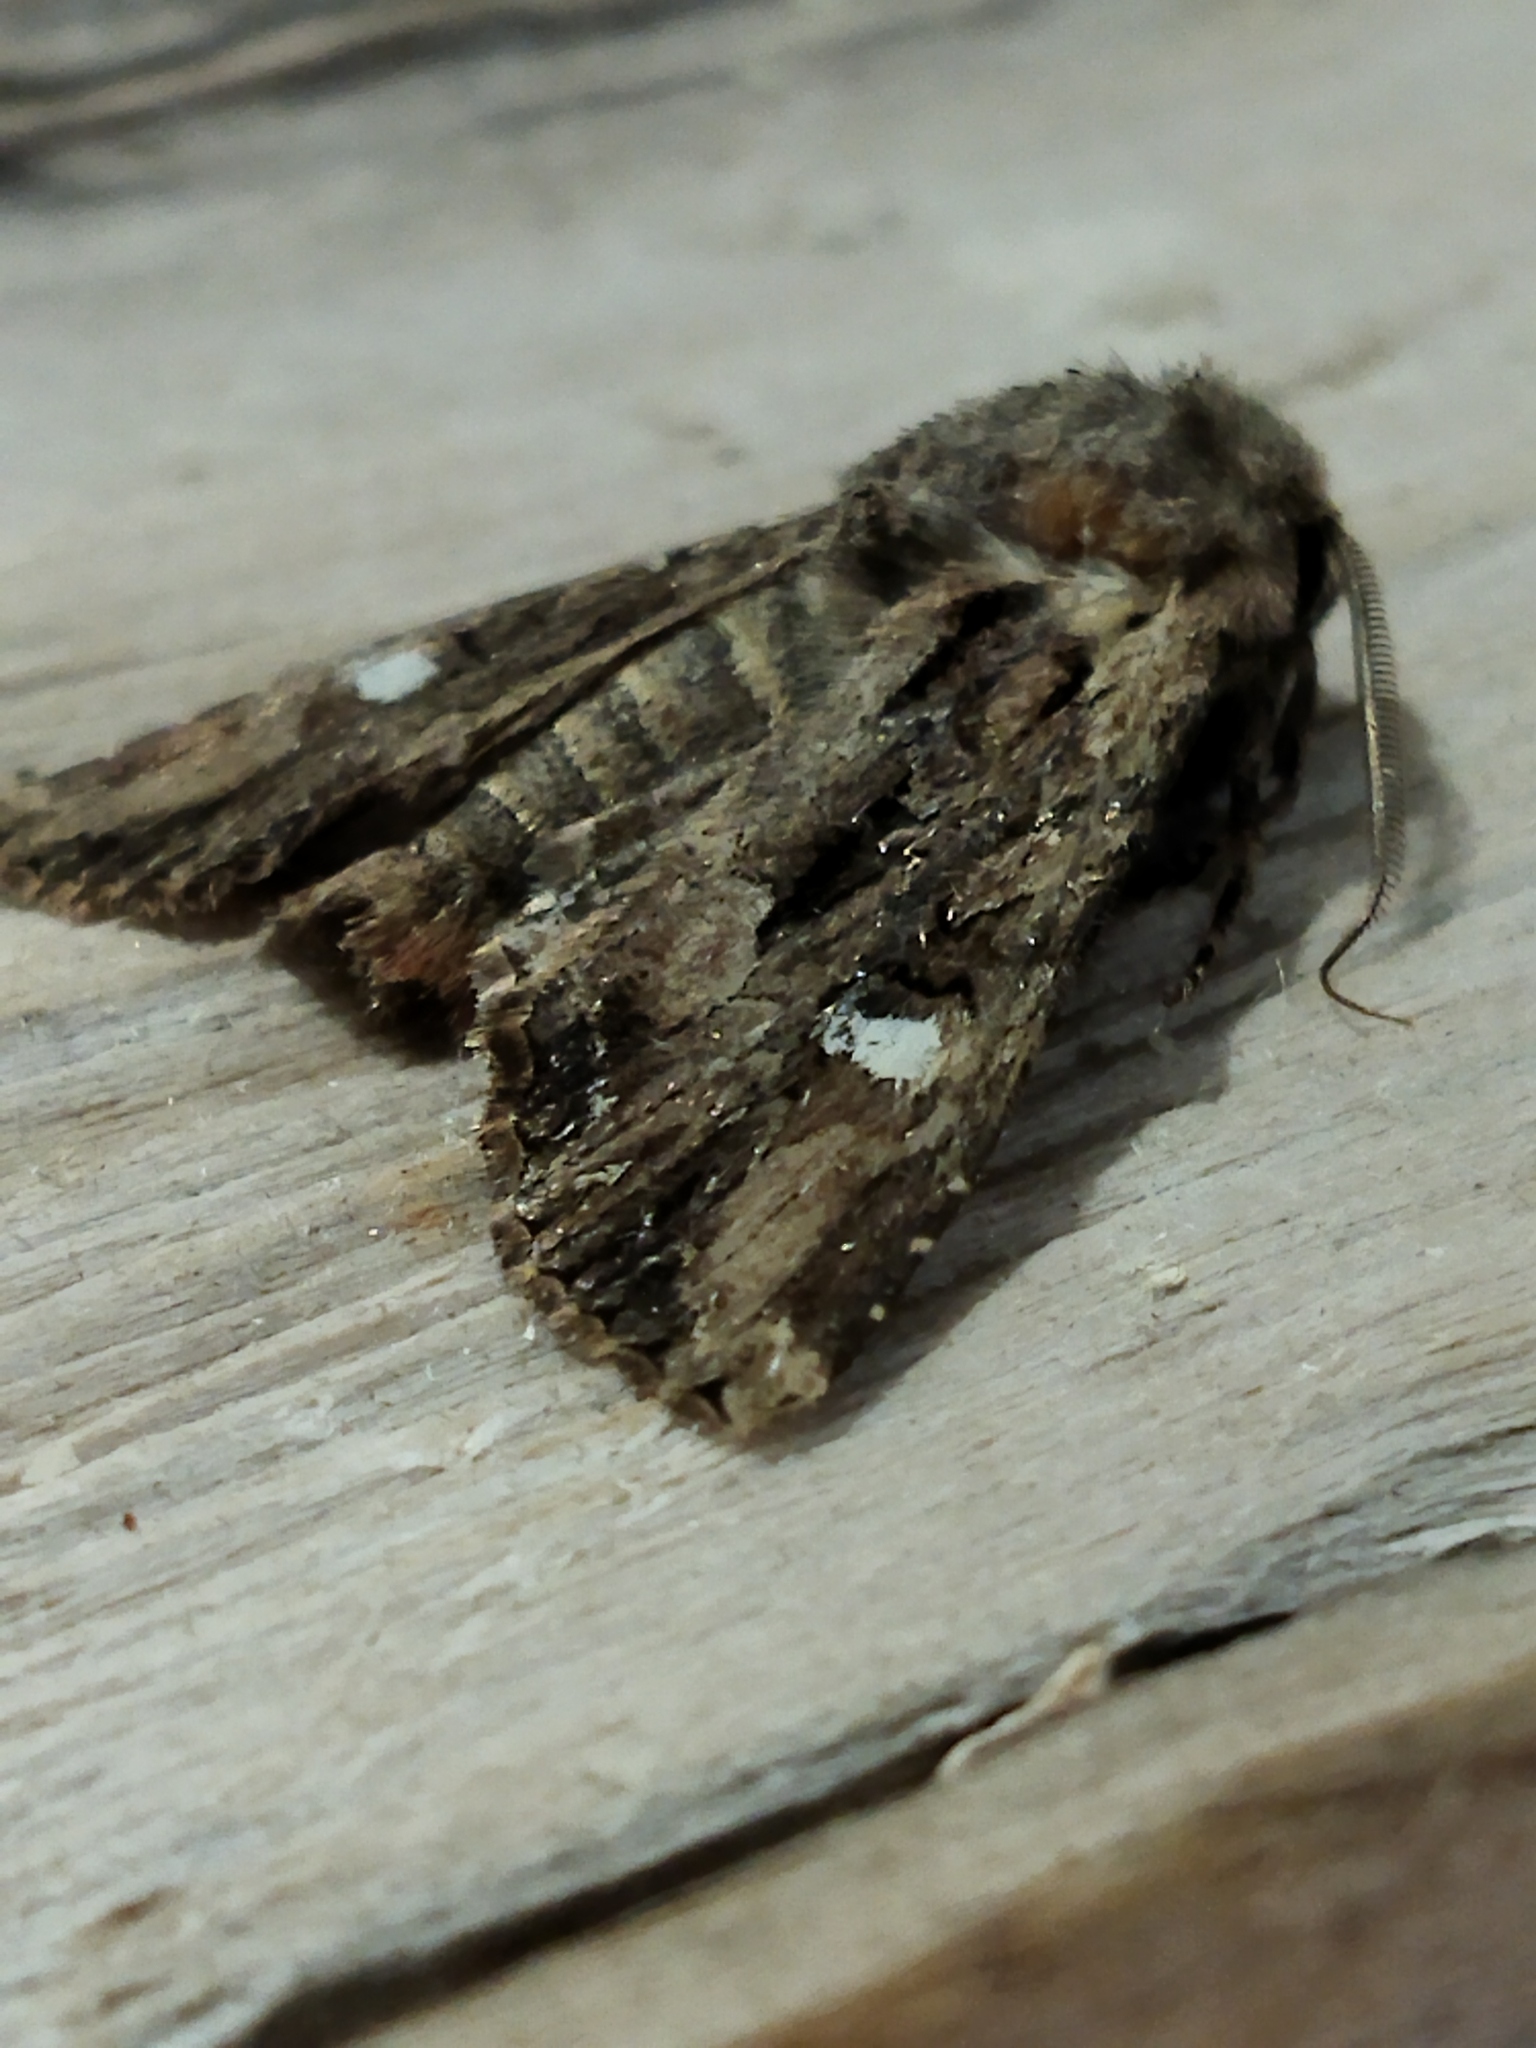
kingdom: Animalia
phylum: Arthropoda
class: Insecta
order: Lepidoptera
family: Noctuidae
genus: Polymixis
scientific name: Polymixis trisignata
